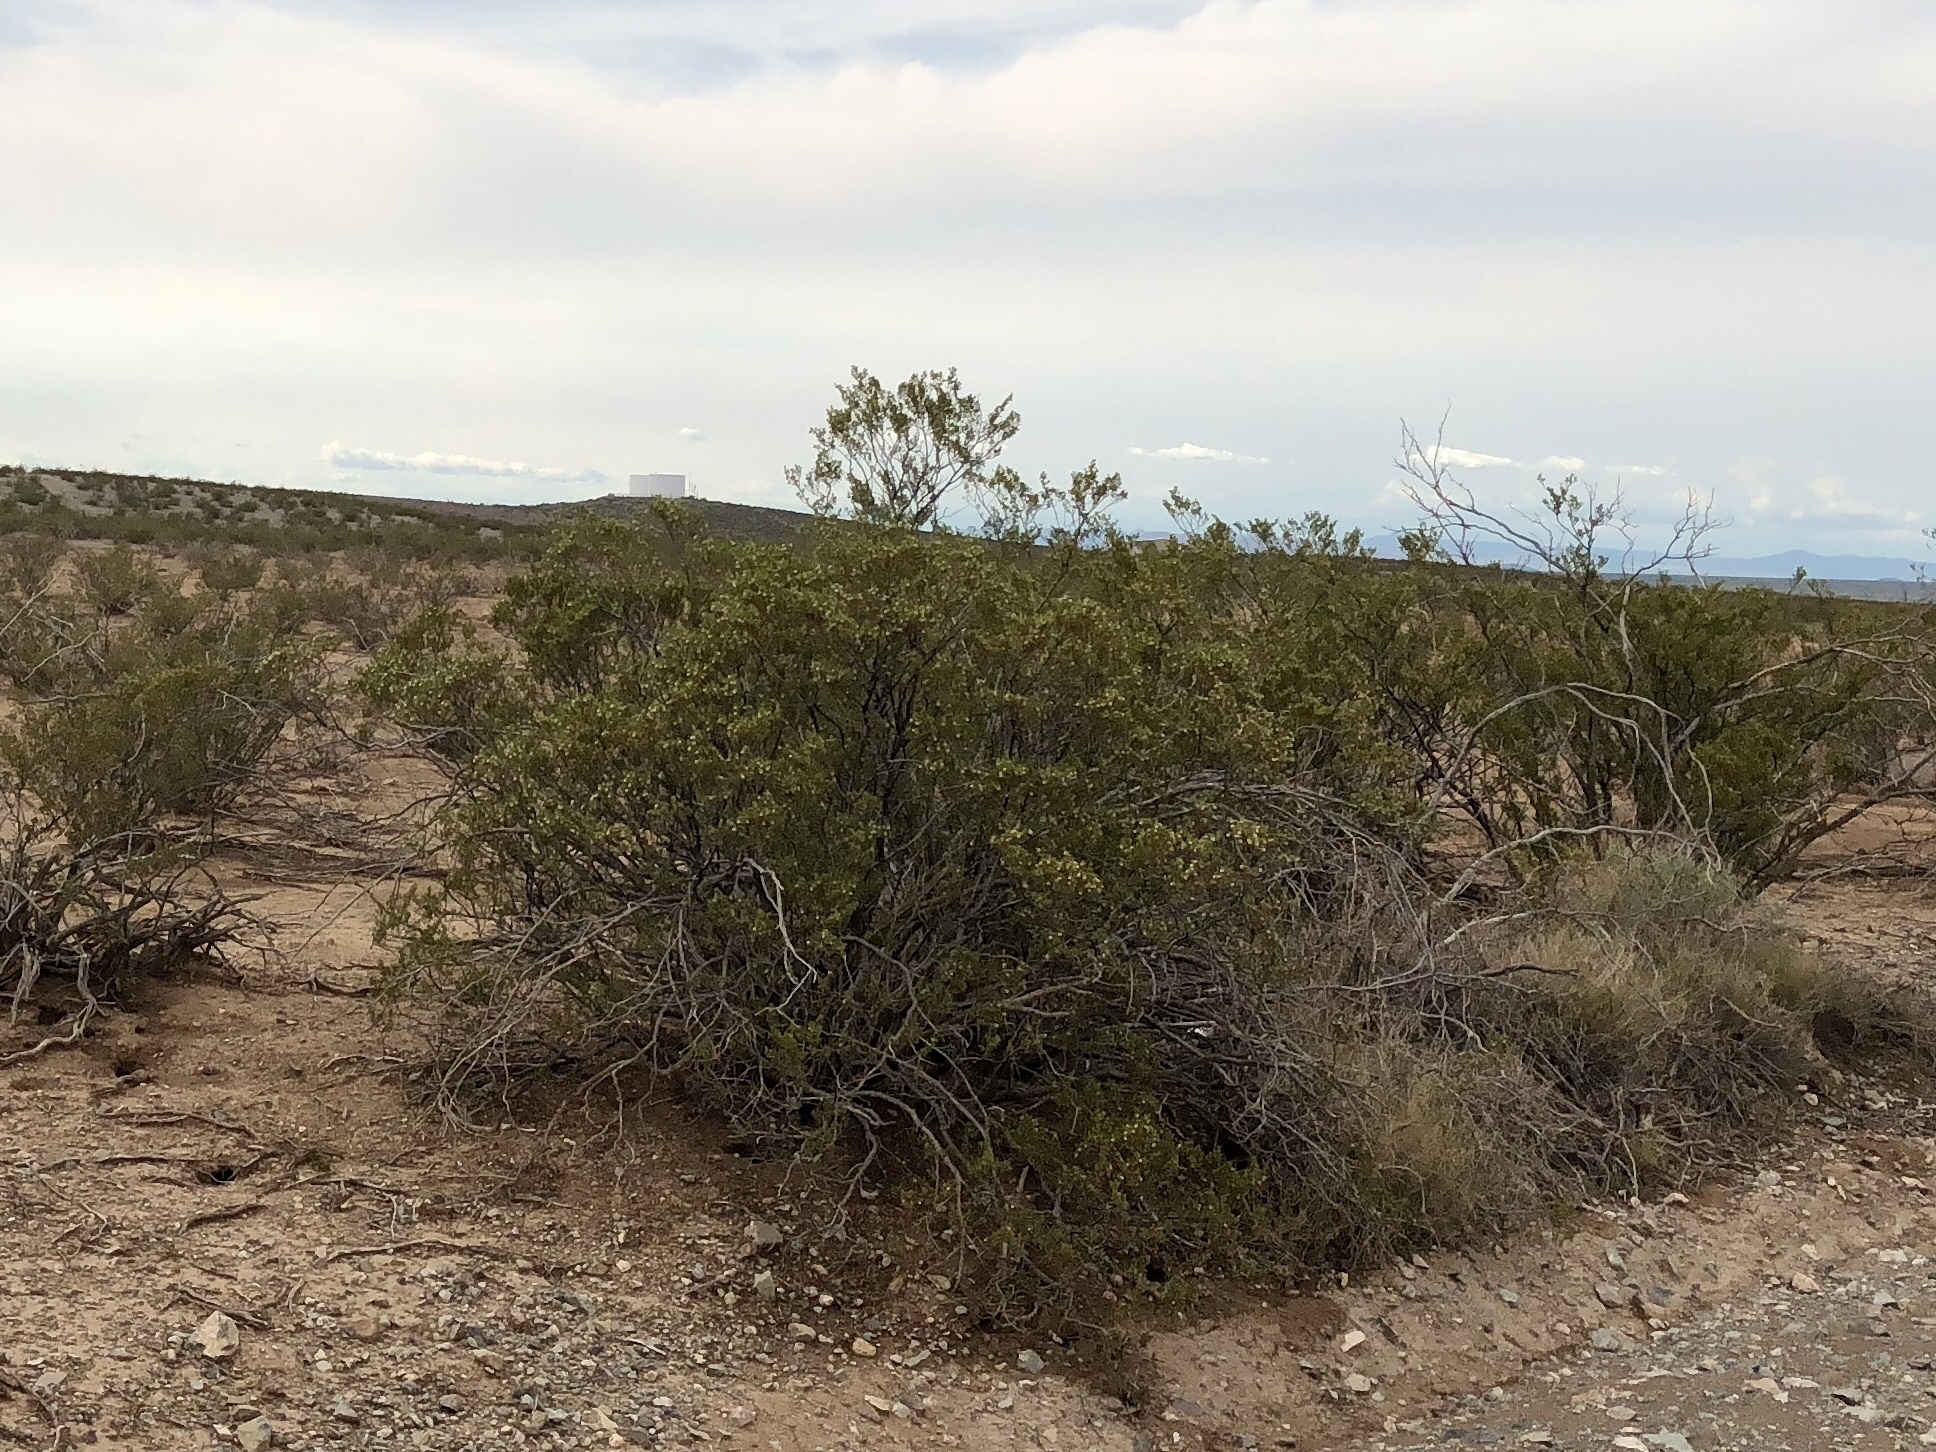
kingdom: Plantae
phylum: Tracheophyta
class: Magnoliopsida
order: Zygophyllales
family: Zygophyllaceae
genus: Larrea
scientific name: Larrea tridentata
